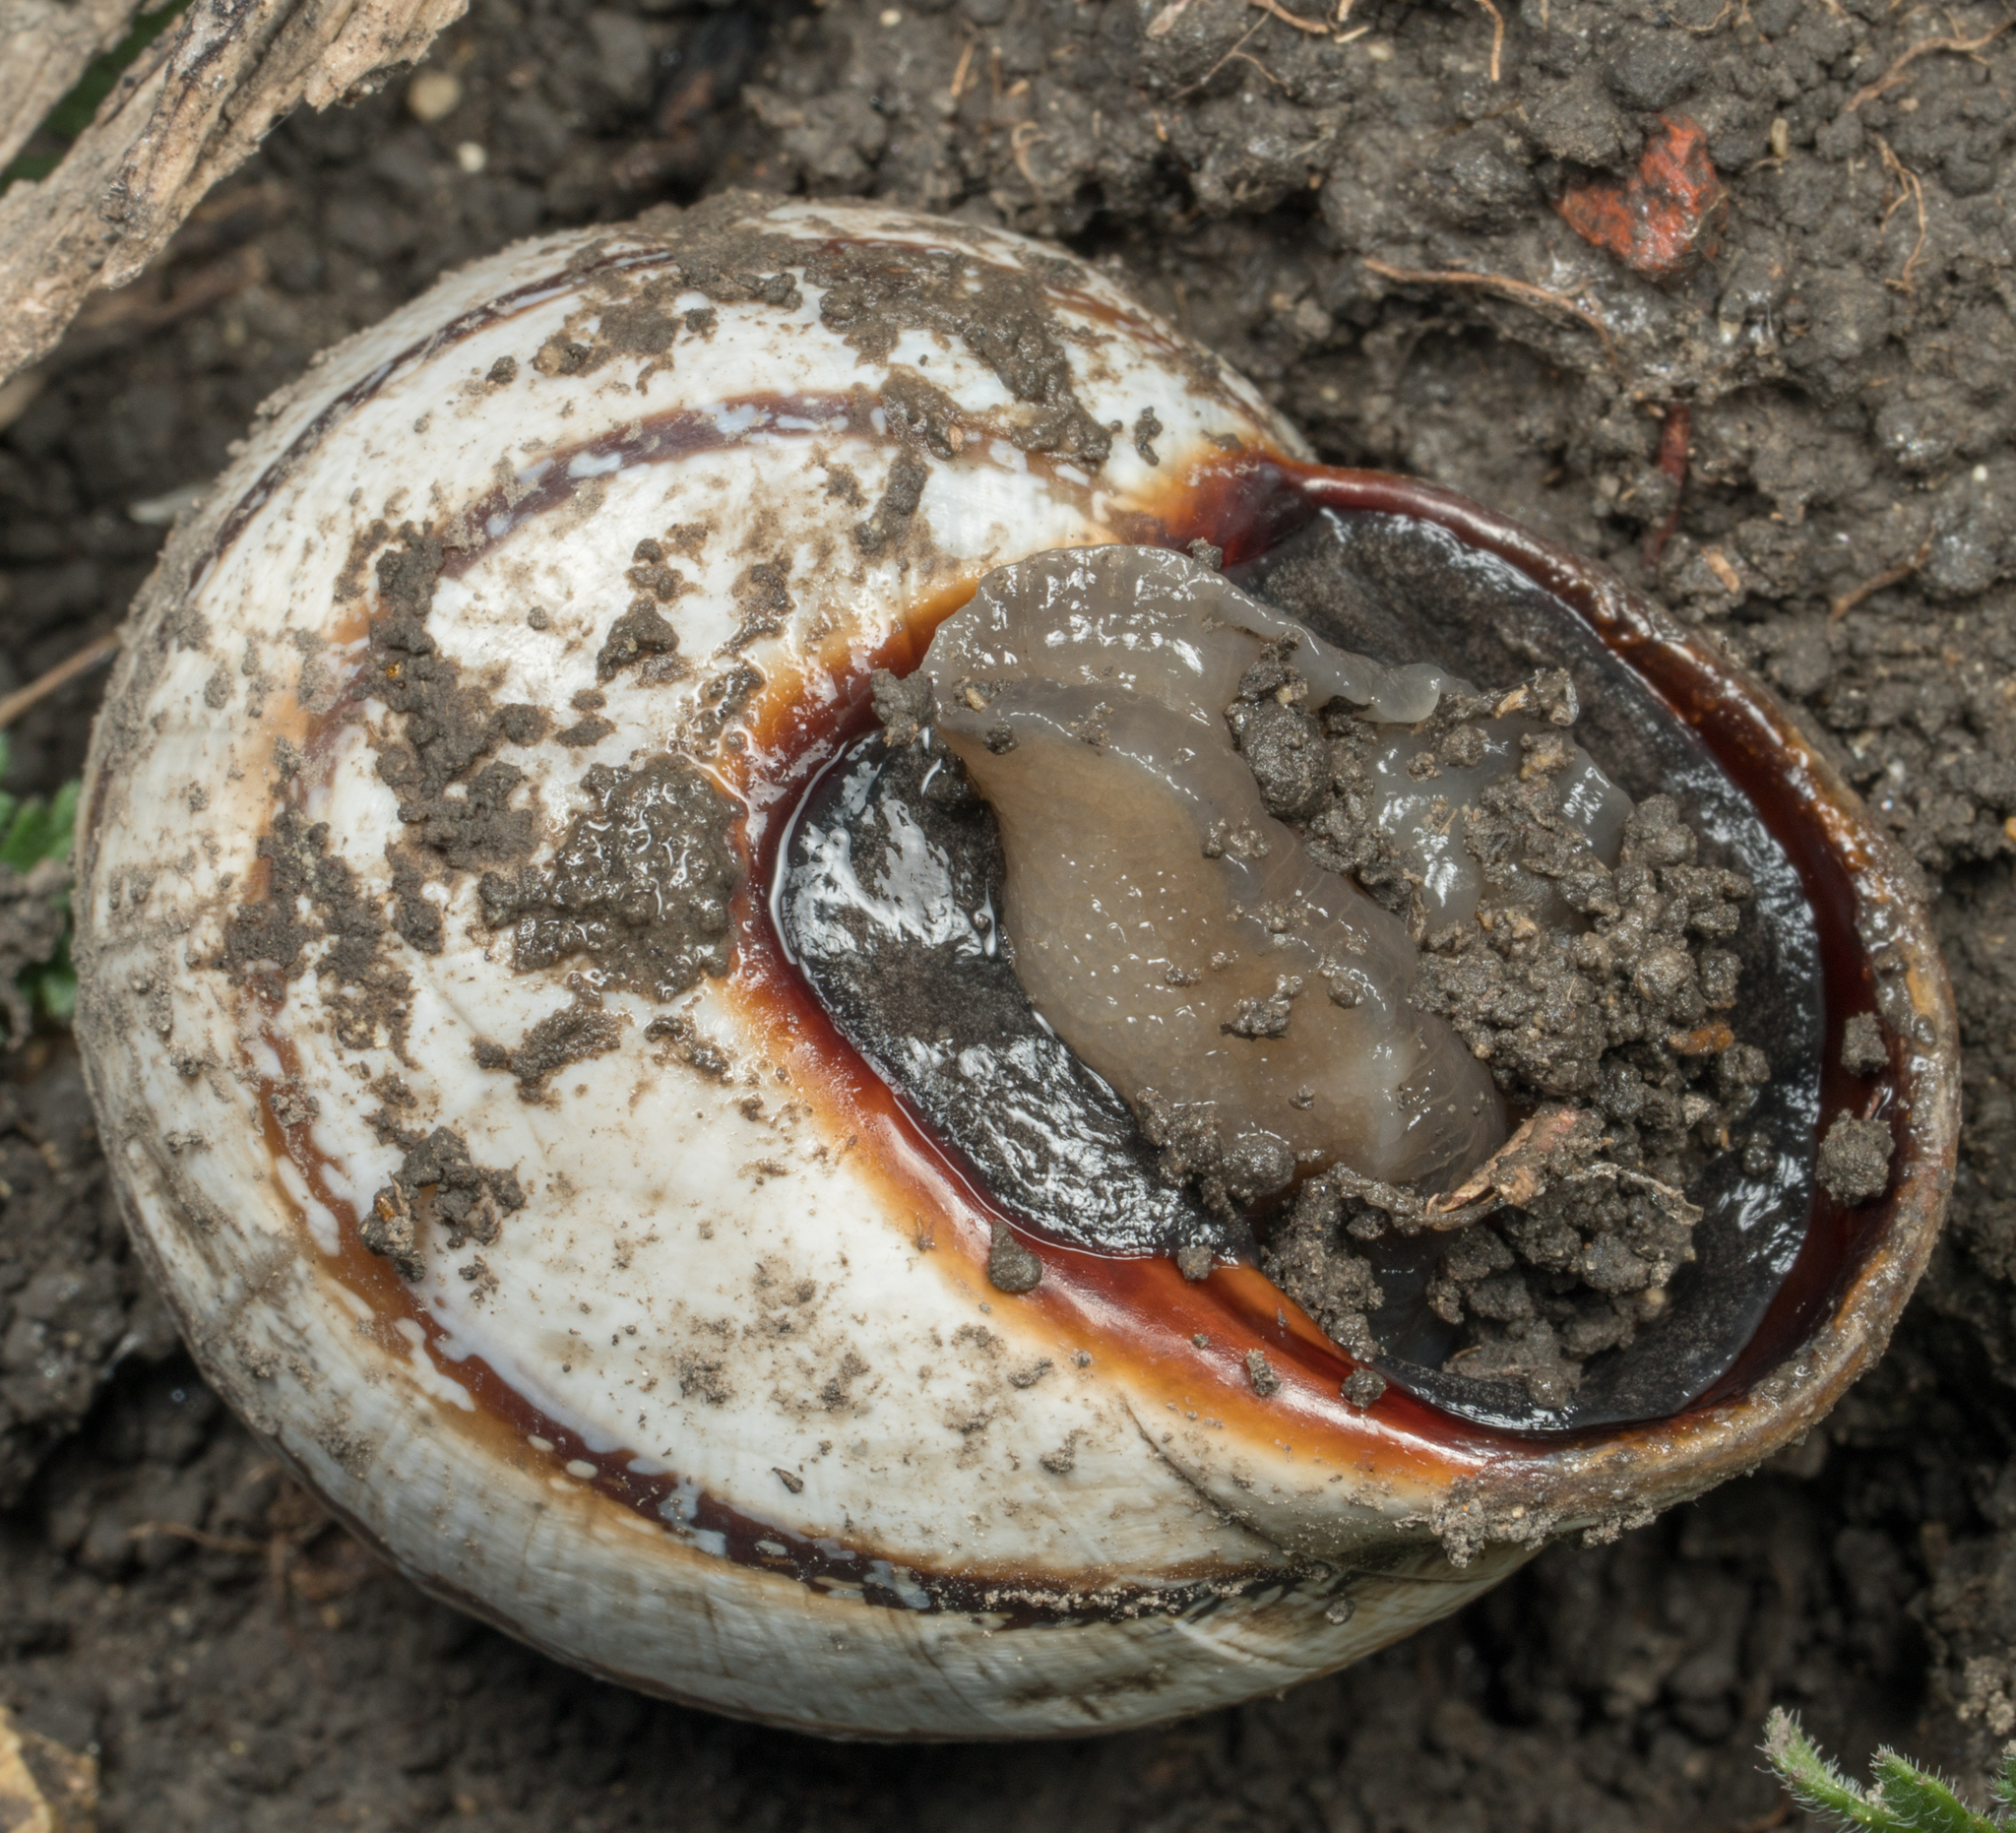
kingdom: Animalia
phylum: Mollusca
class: Gastropoda
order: Stylommatophora
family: Helicidae
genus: Otala
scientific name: Otala lactea
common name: Milk snail
